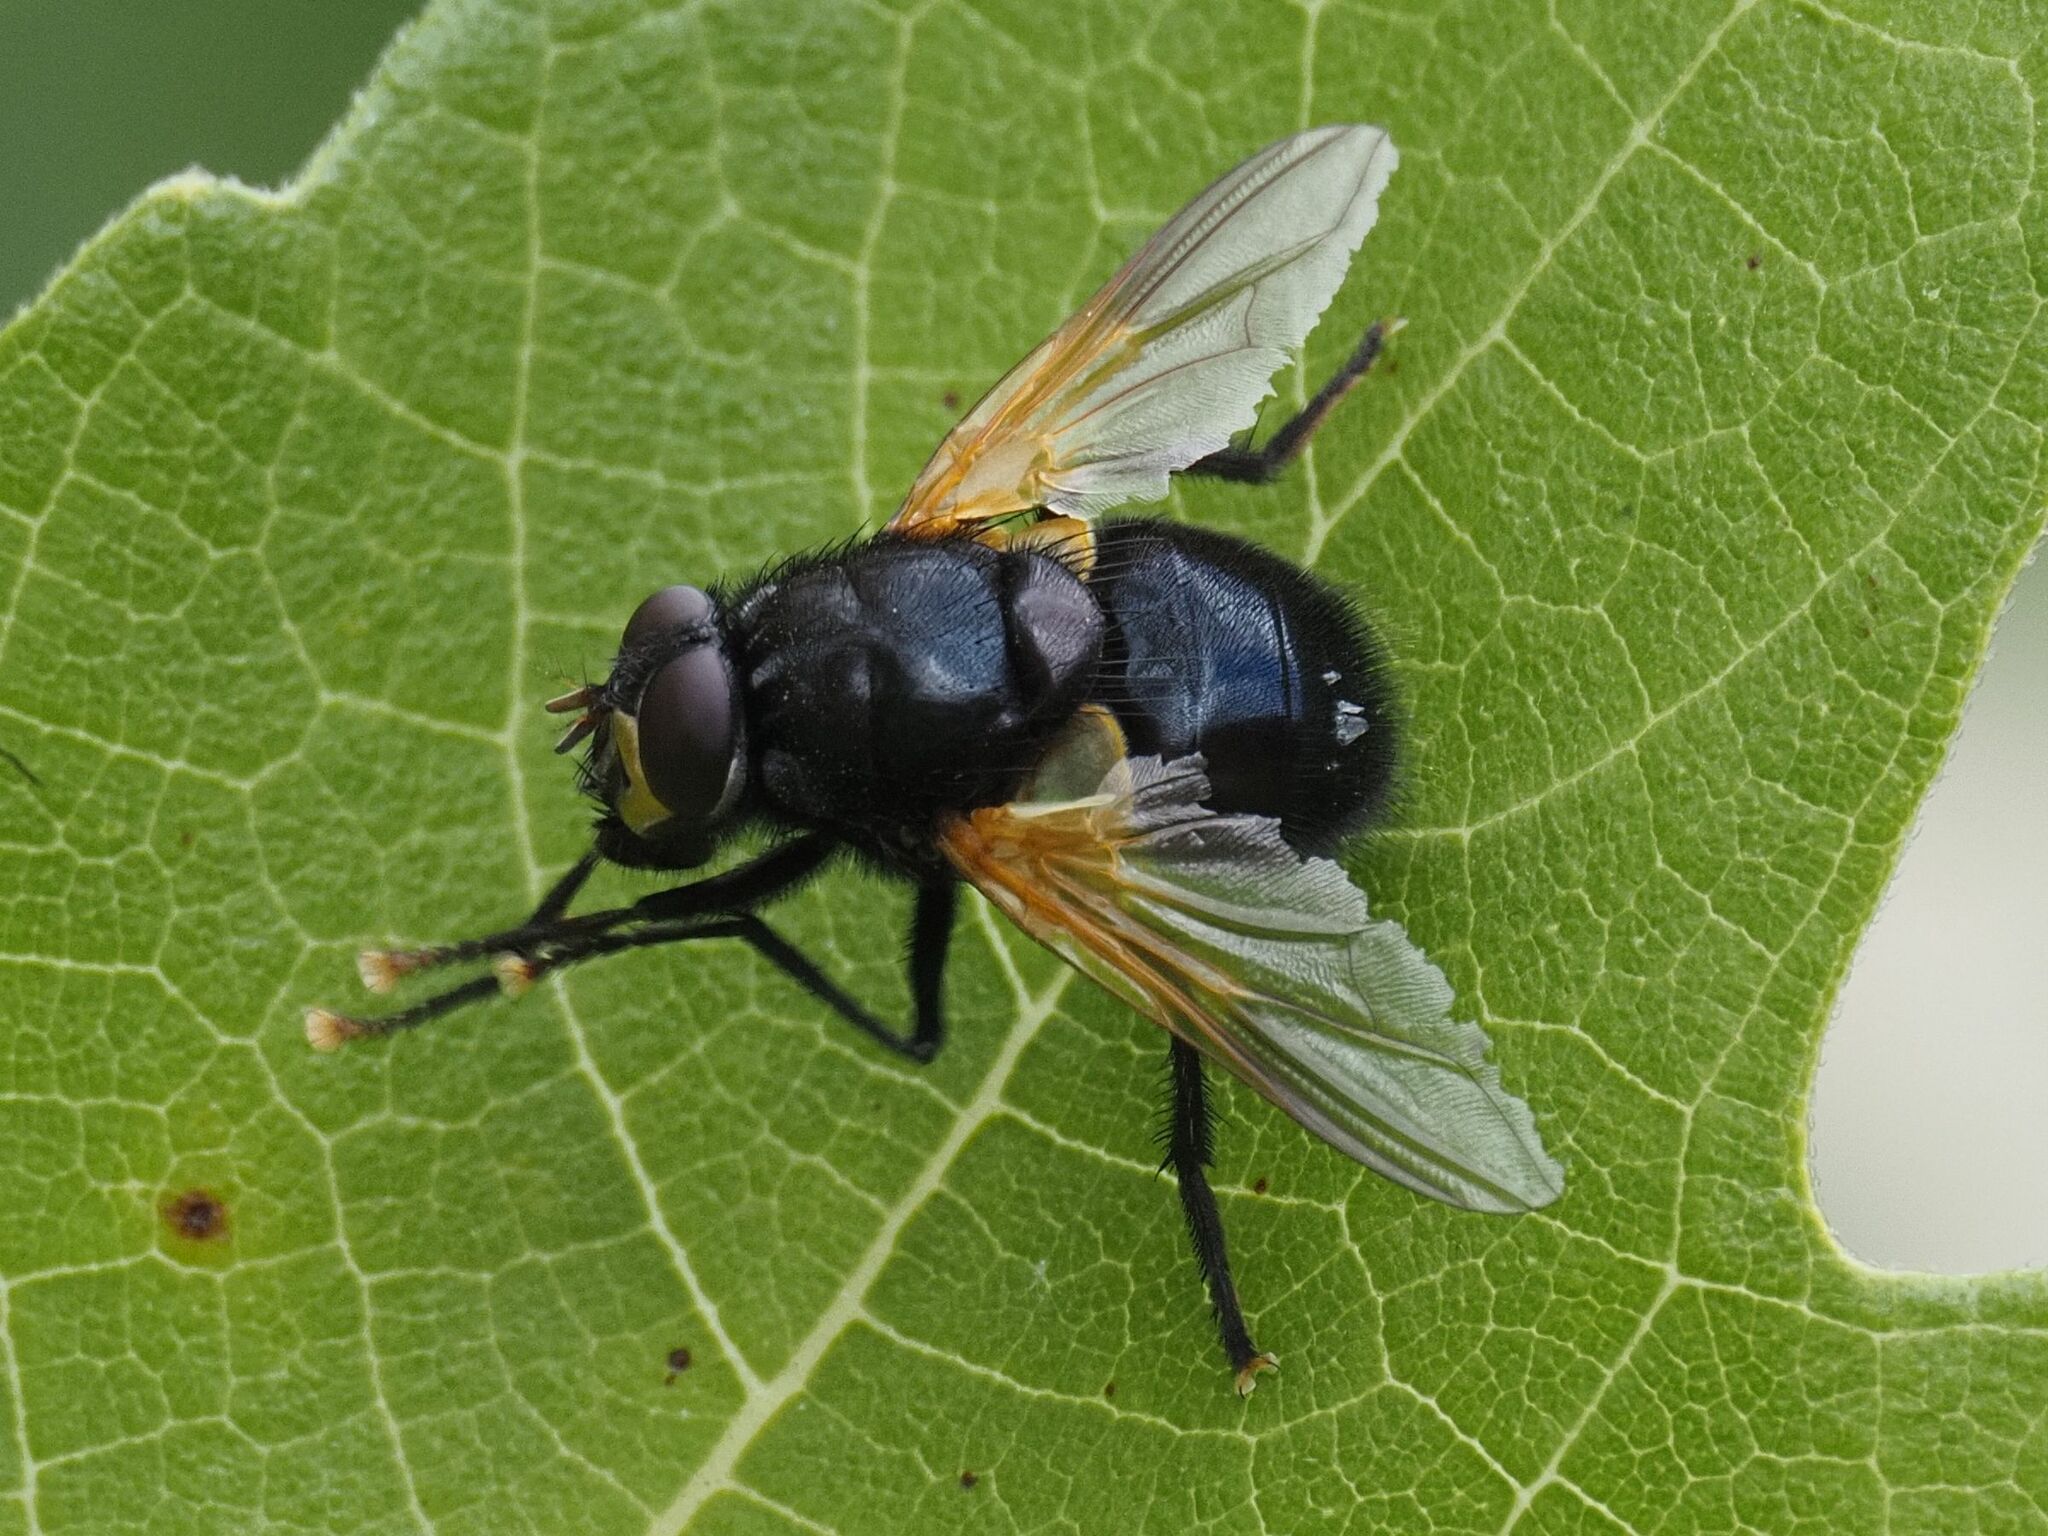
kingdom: Animalia
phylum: Arthropoda
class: Insecta
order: Diptera
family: Muscidae
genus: Mesembrina
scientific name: Mesembrina meridiana
